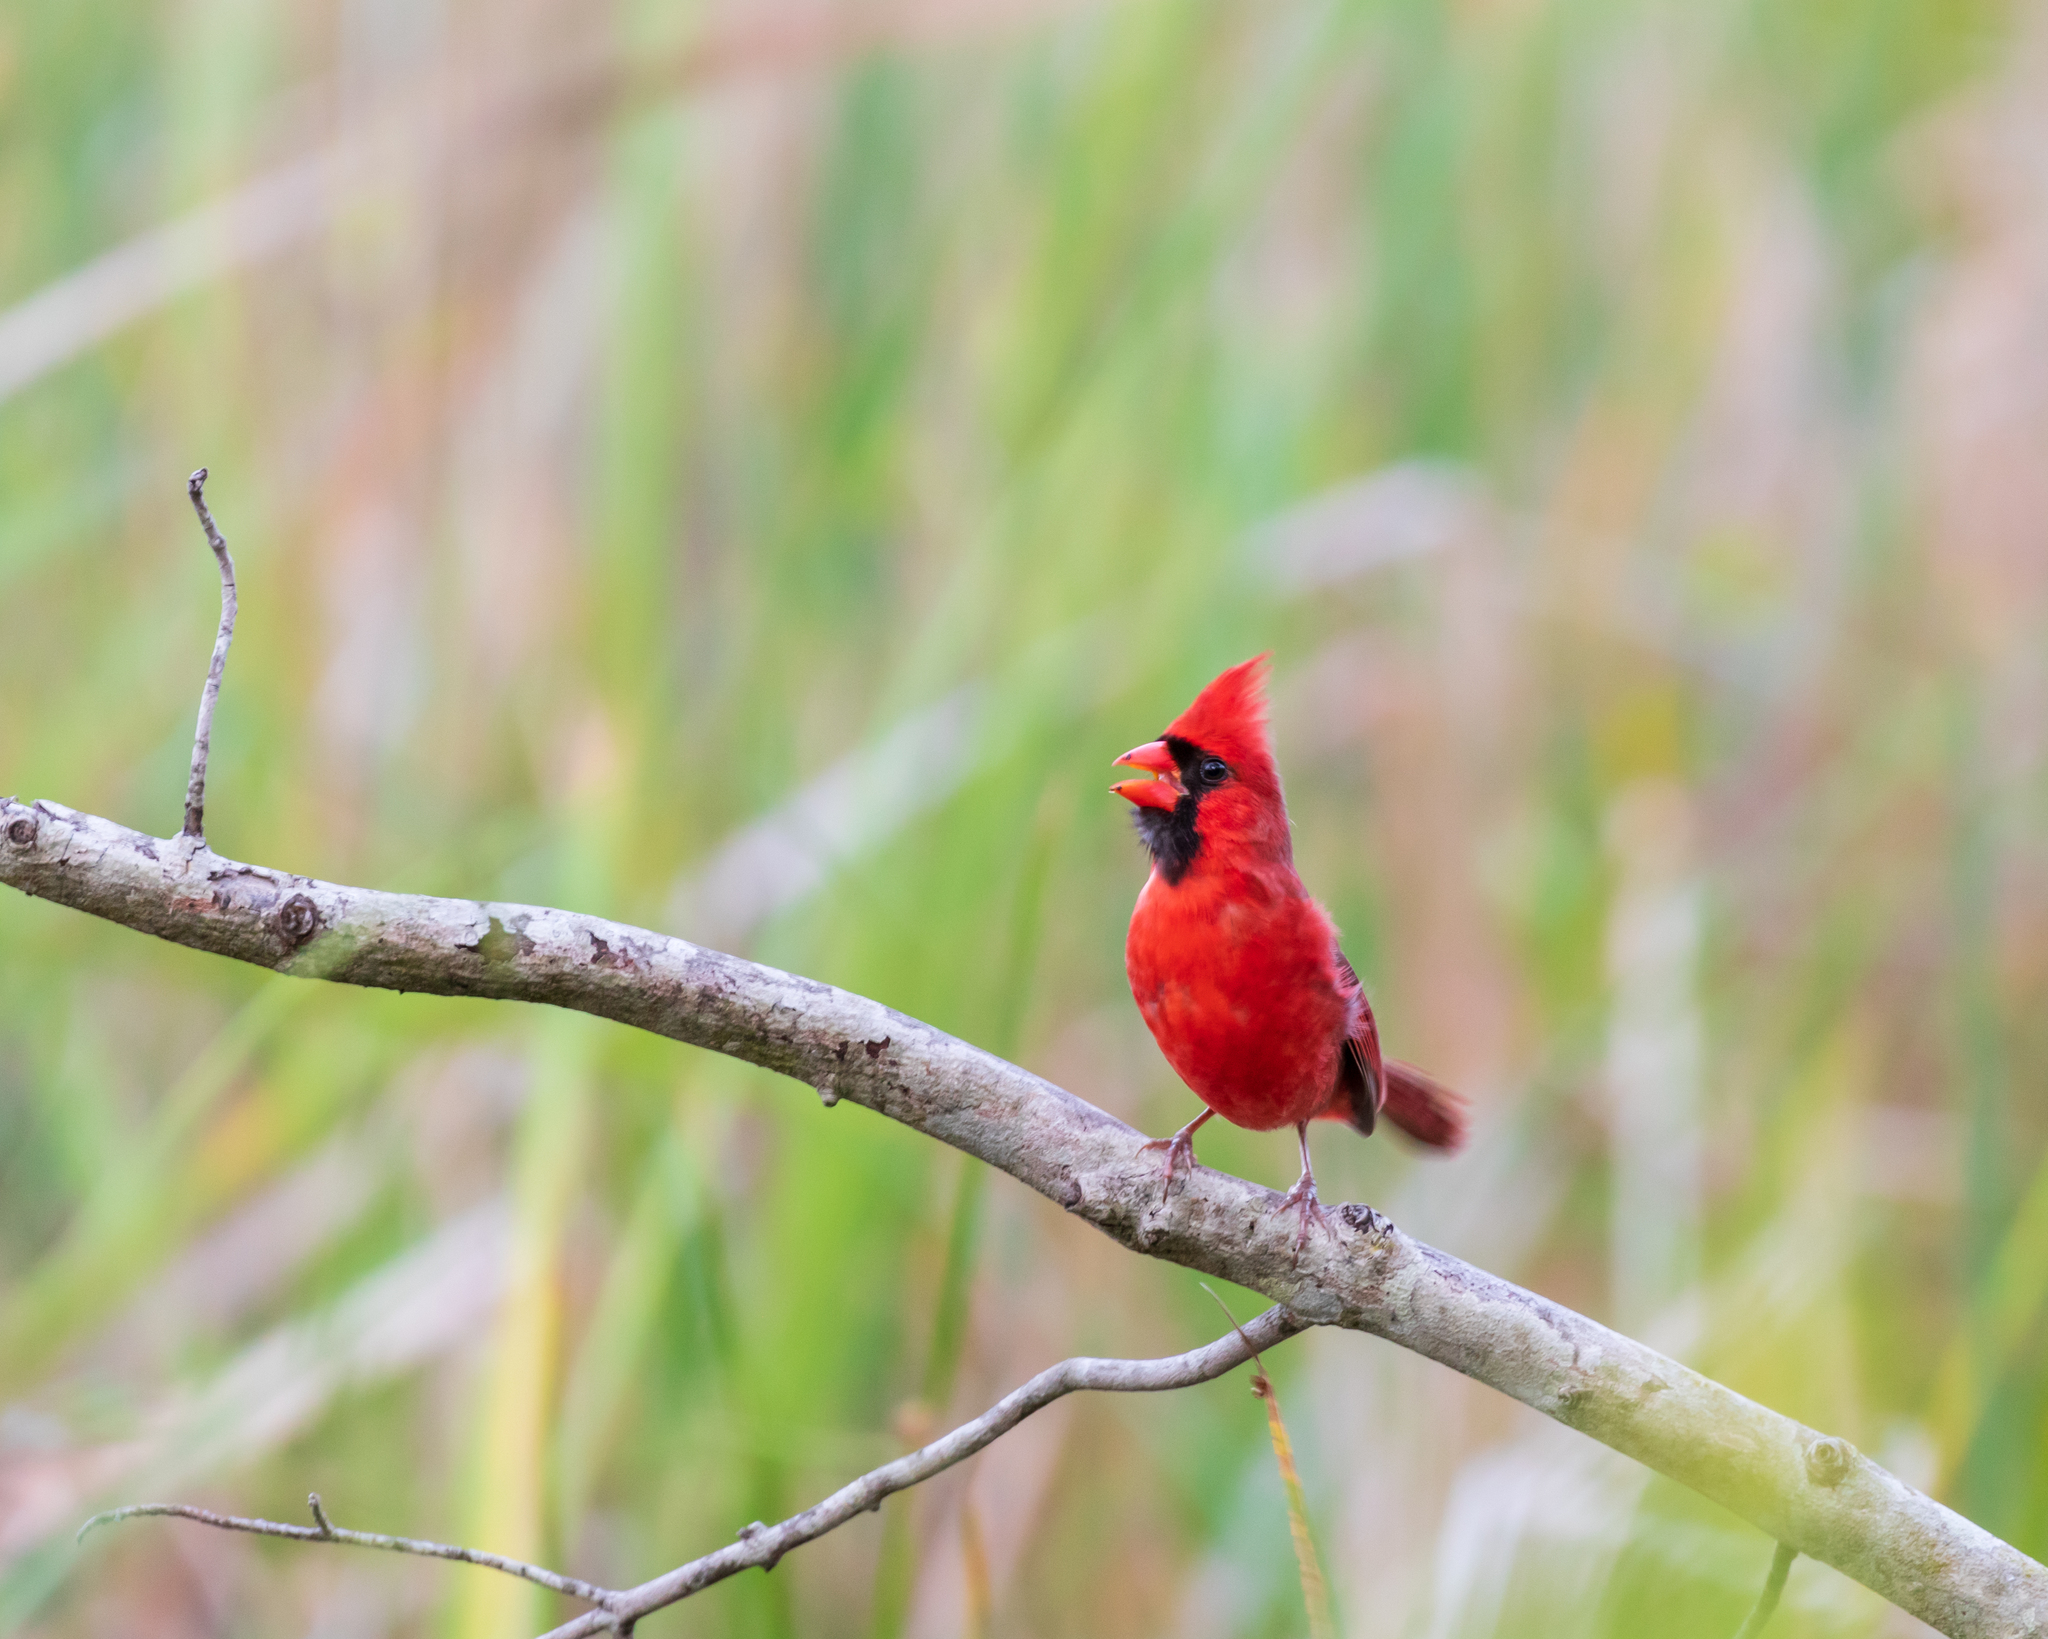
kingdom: Animalia
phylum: Chordata
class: Aves
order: Passeriformes
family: Cardinalidae
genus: Cardinalis
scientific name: Cardinalis cardinalis
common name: Northern cardinal
